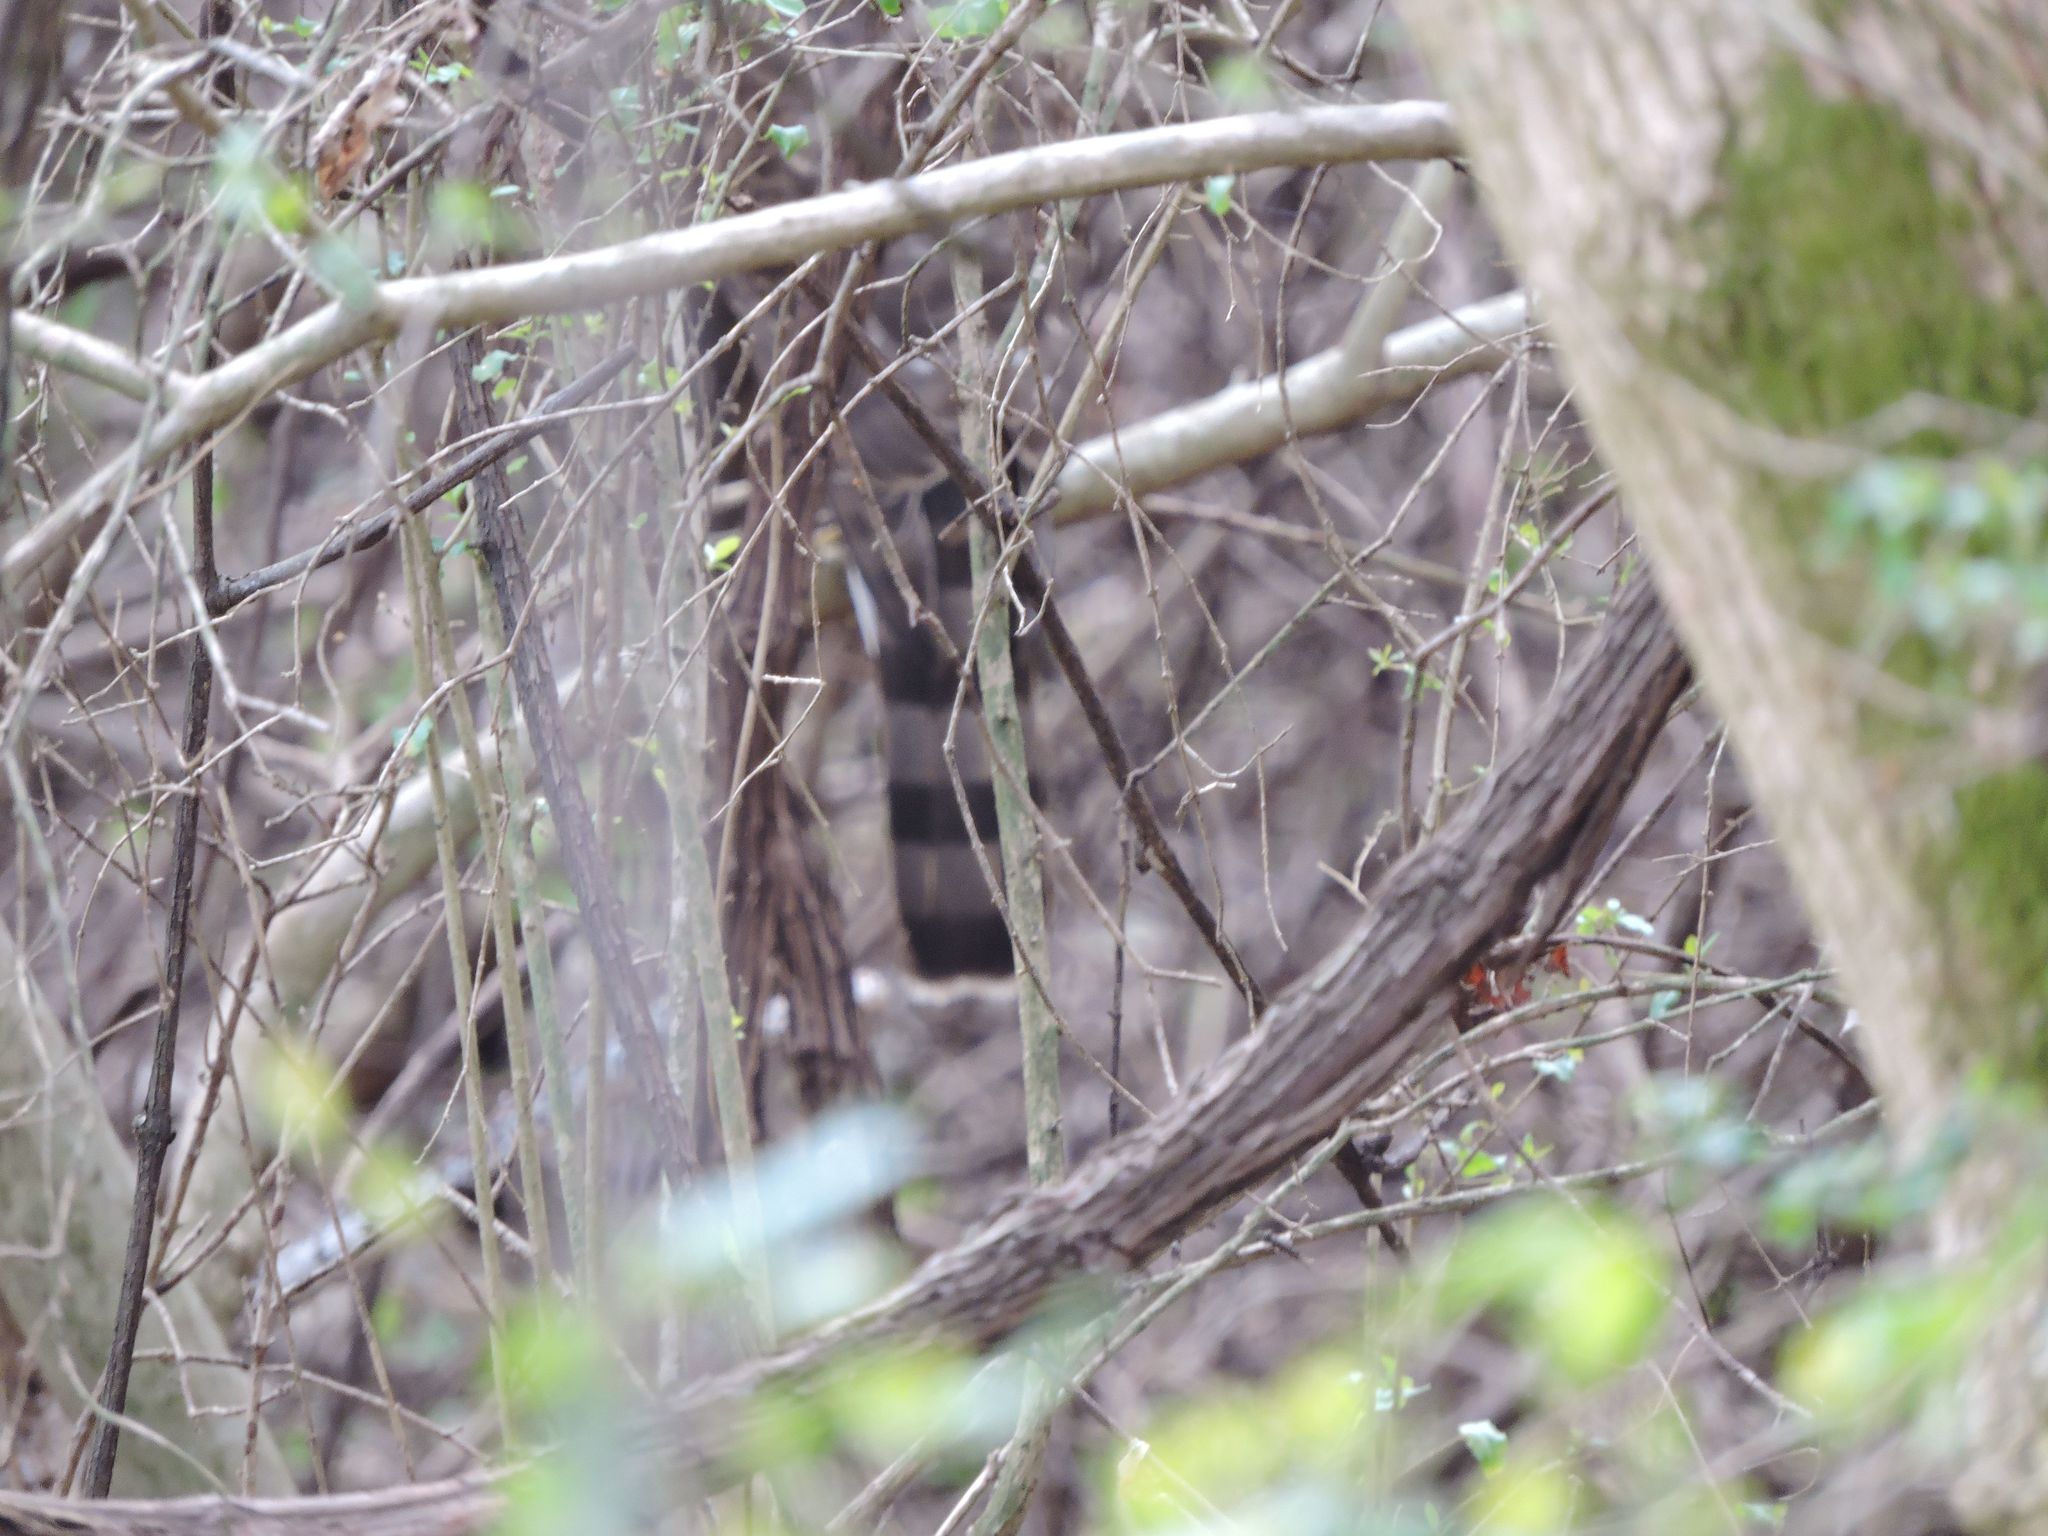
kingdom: Animalia
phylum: Chordata
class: Aves
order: Accipitriformes
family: Accipitridae
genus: Accipiter
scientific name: Accipiter cooperii
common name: Cooper's hawk
